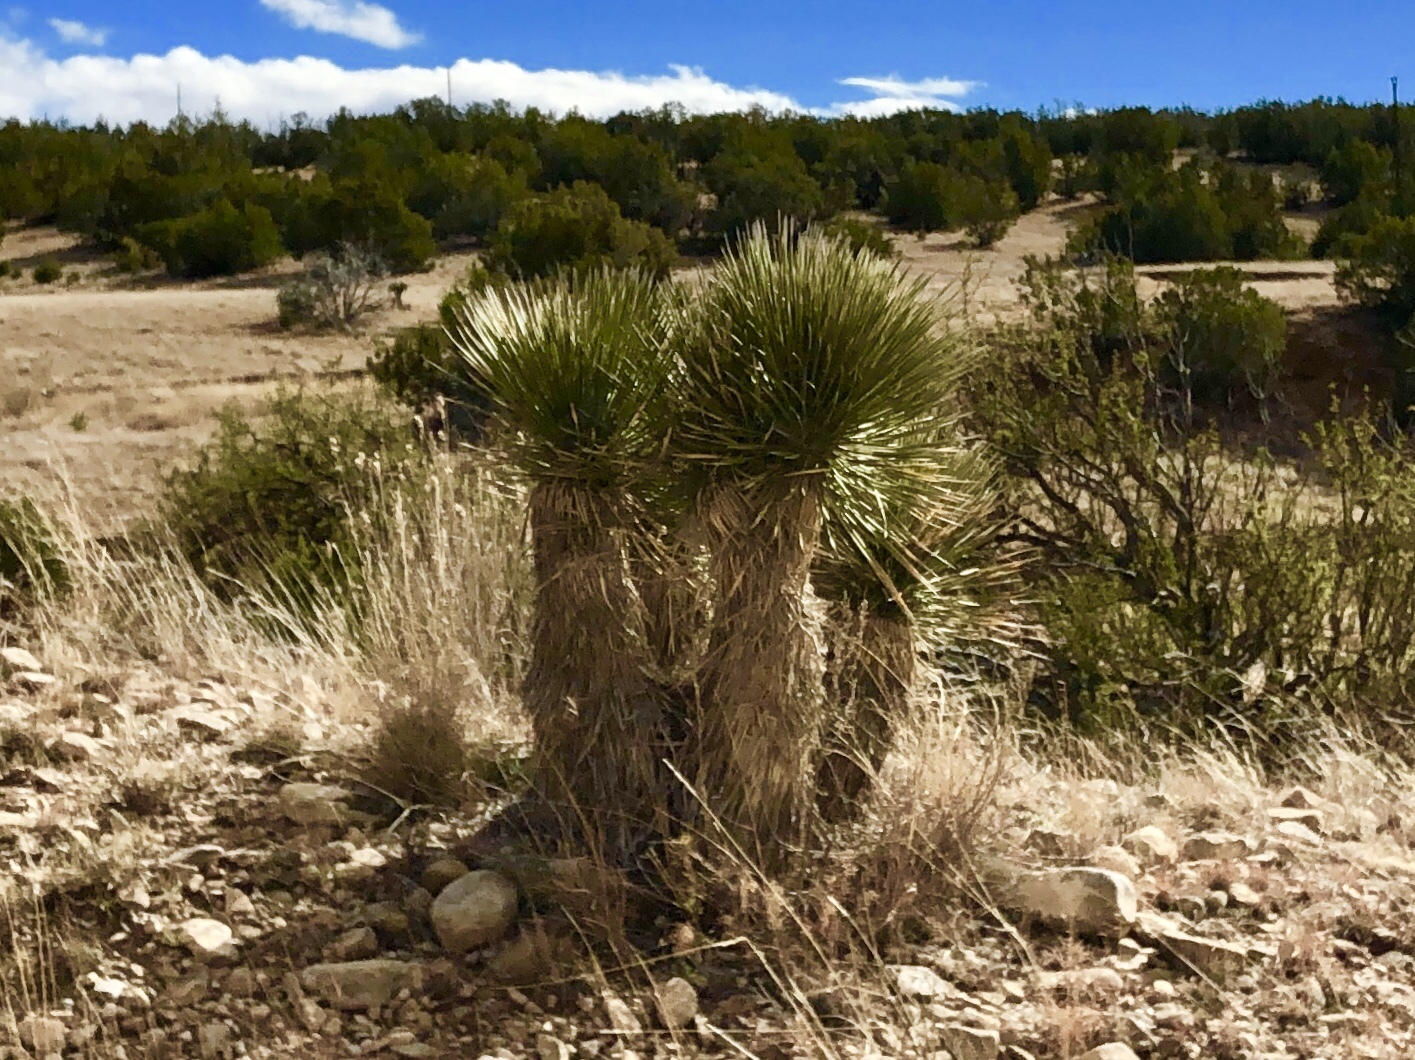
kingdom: Plantae
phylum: Tracheophyta
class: Liliopsida
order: Asparagales
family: Asparagaceae
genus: Yucca
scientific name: Yucca elata
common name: Palmella
